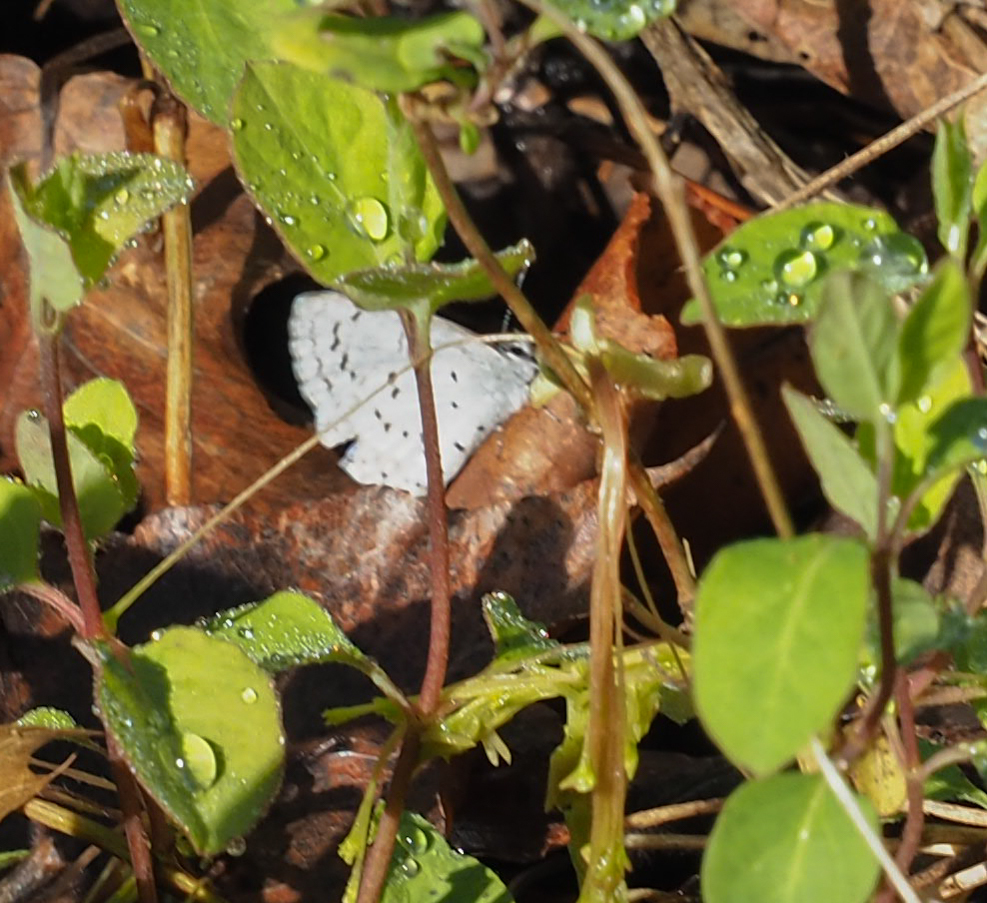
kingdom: Animalia
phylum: Arthropoda
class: Insecta
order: Lepidoptera
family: Lycaenidae
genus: Cyaniris
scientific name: Cyaniris neglecta
